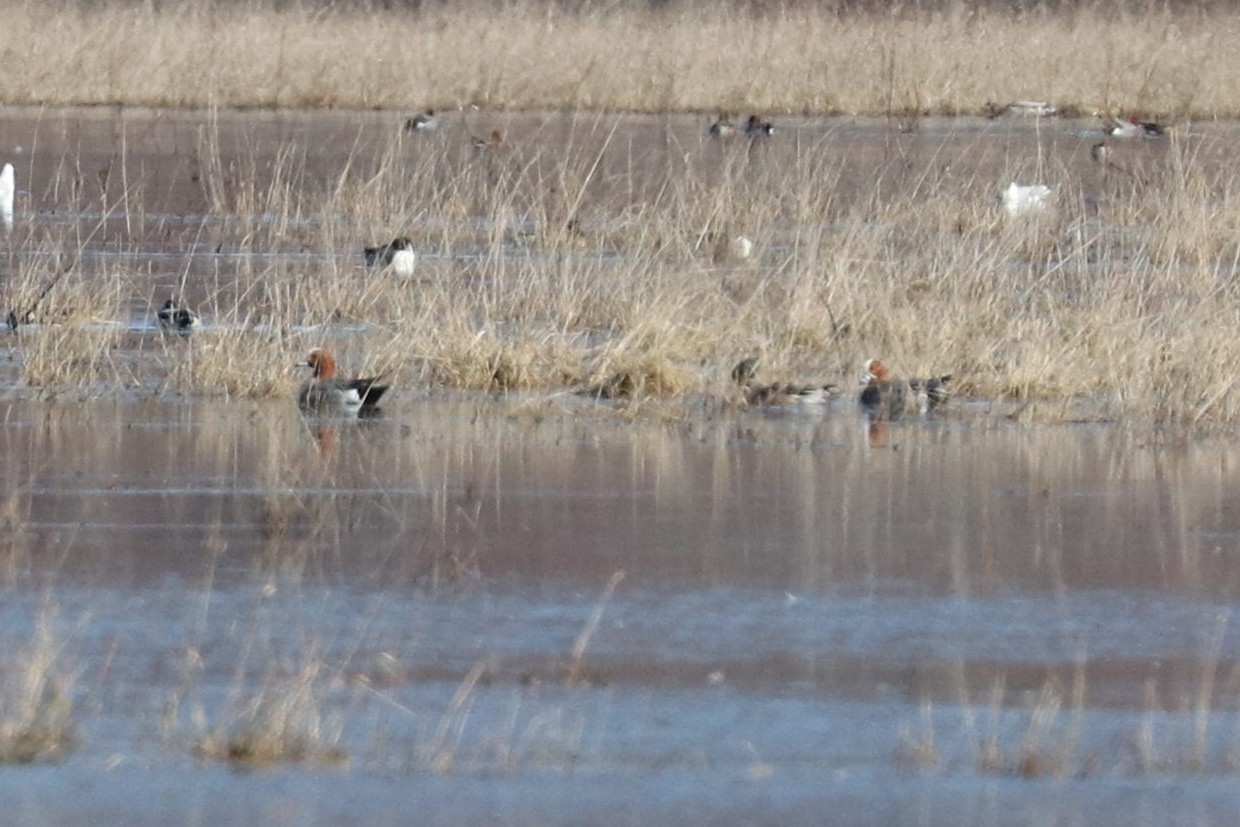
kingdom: Animalia
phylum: Chordata
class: Aves
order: Anseriformes
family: Anatidae
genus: Mareca
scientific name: Mareca penelope
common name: Eurasian wigeon
